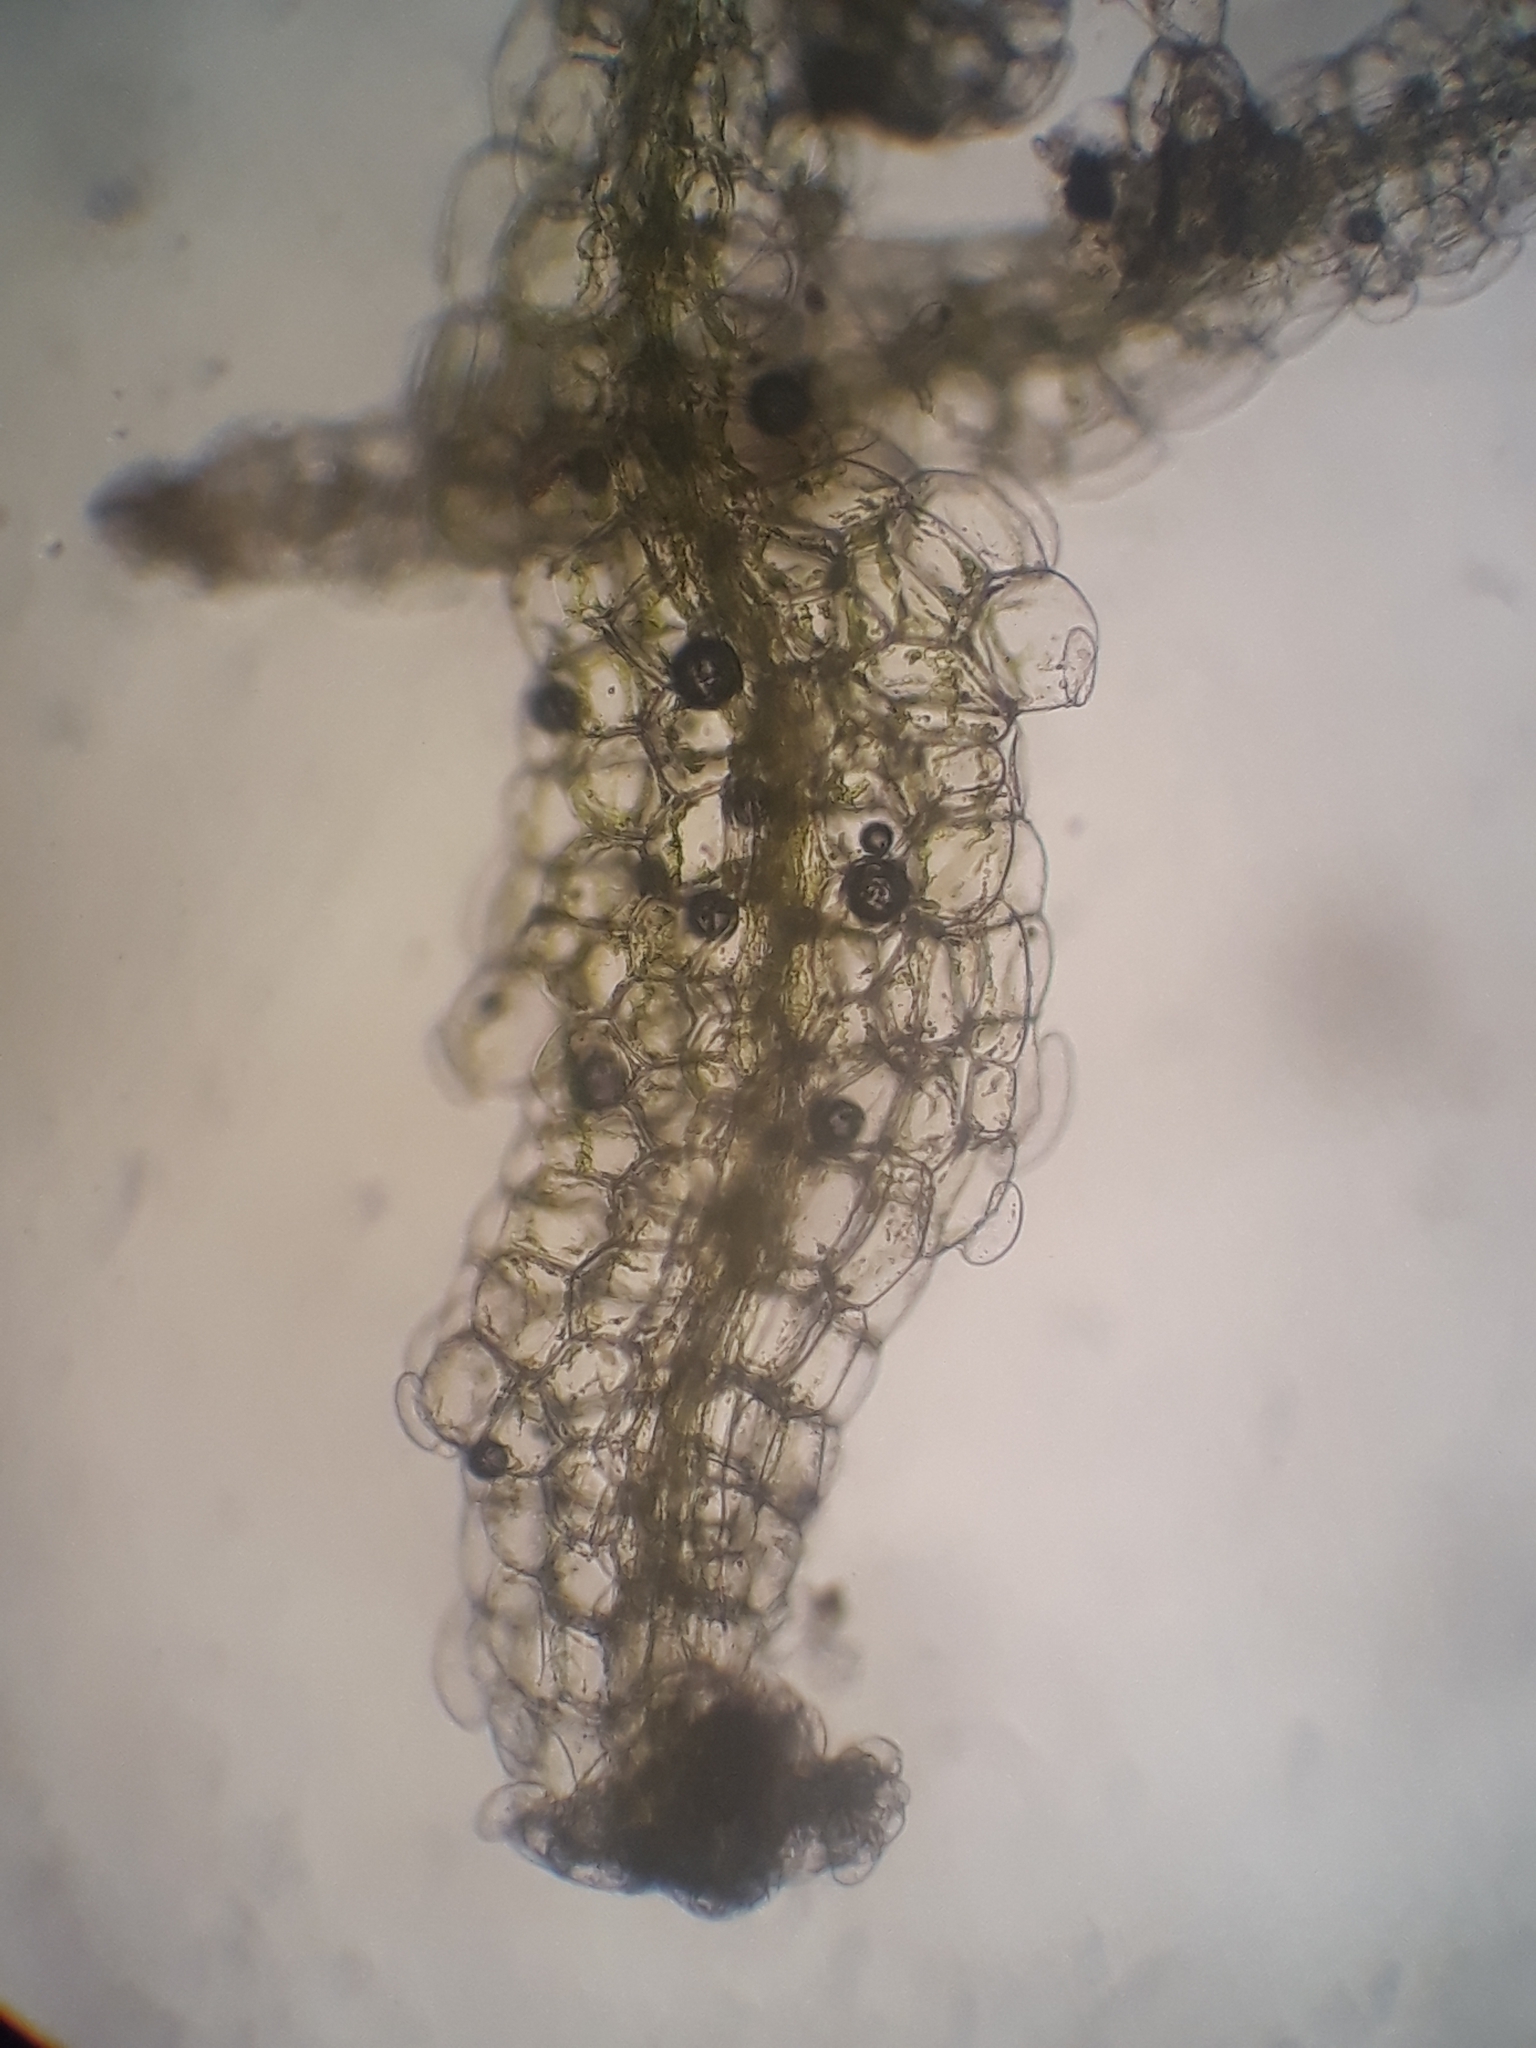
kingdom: Plantae
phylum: Marchantiophyta
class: Jungermanniopsida
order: Jungermanniales
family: Lepidoziaceae
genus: Zoopsis
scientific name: Zoopsis argentea
